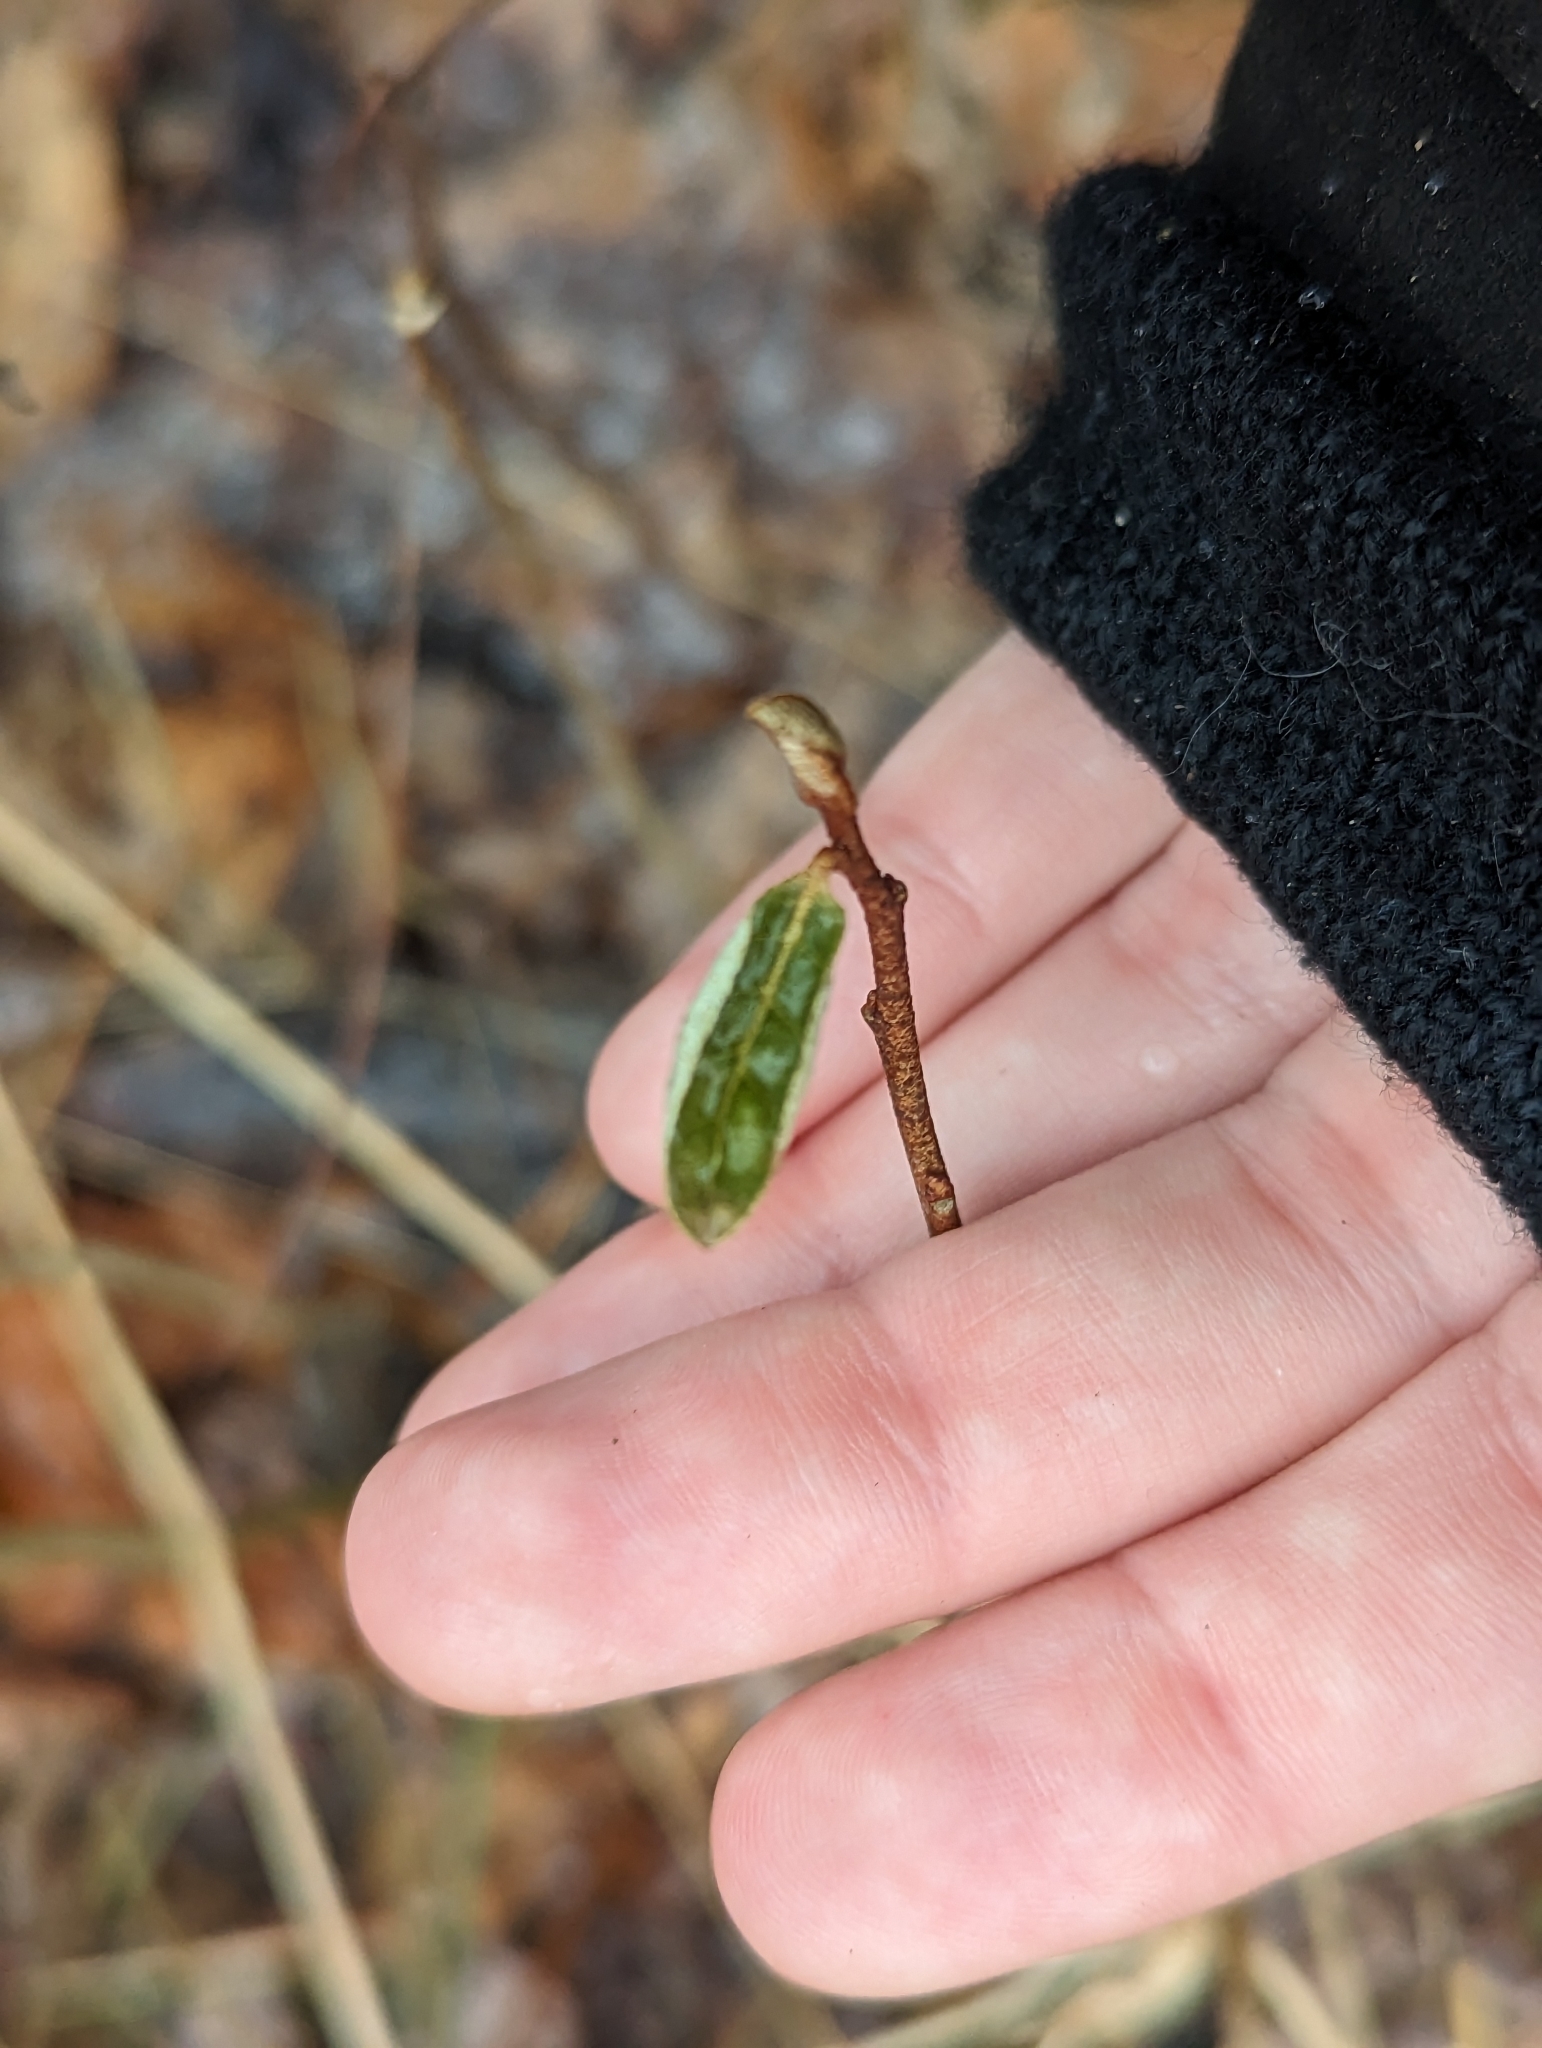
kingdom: Plantae
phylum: Tracheophyta
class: Magnoliopsida
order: Rosales
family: Elaeagnaceae
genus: Elaeagnus
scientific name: Elaeagnus umbellata
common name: Autumn olive
